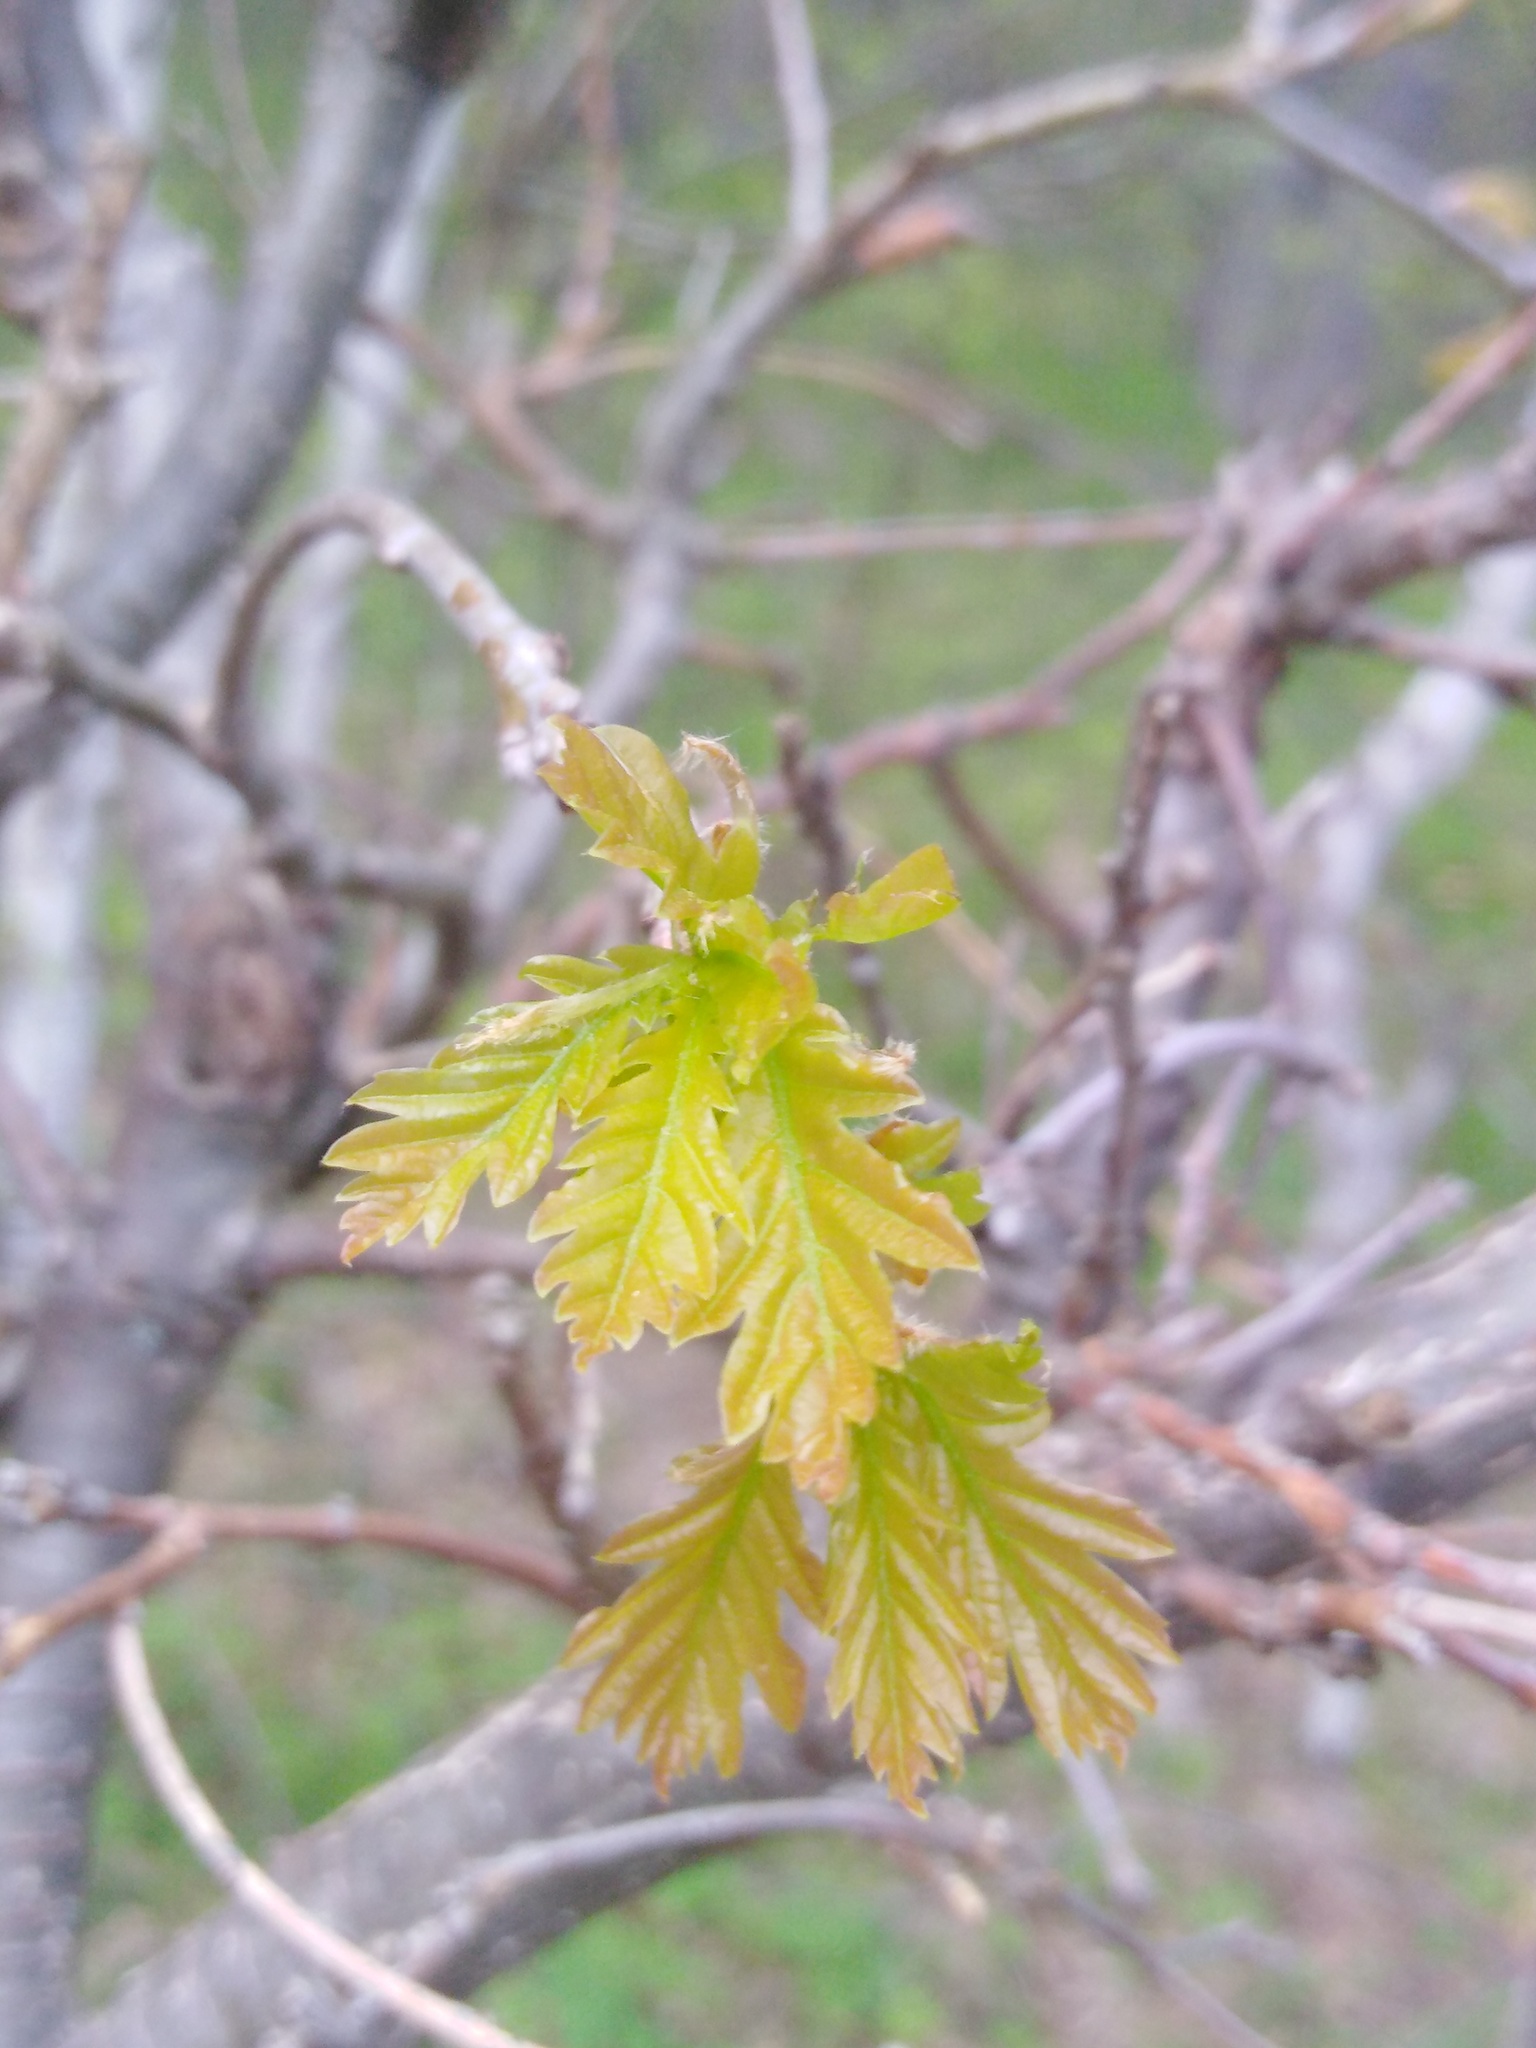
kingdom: Plantae
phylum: Tracheophyta
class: Magnoliopsida
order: Fagales
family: Fagaceae
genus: Quercus
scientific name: Quercus robur
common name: Pedunculate oak
